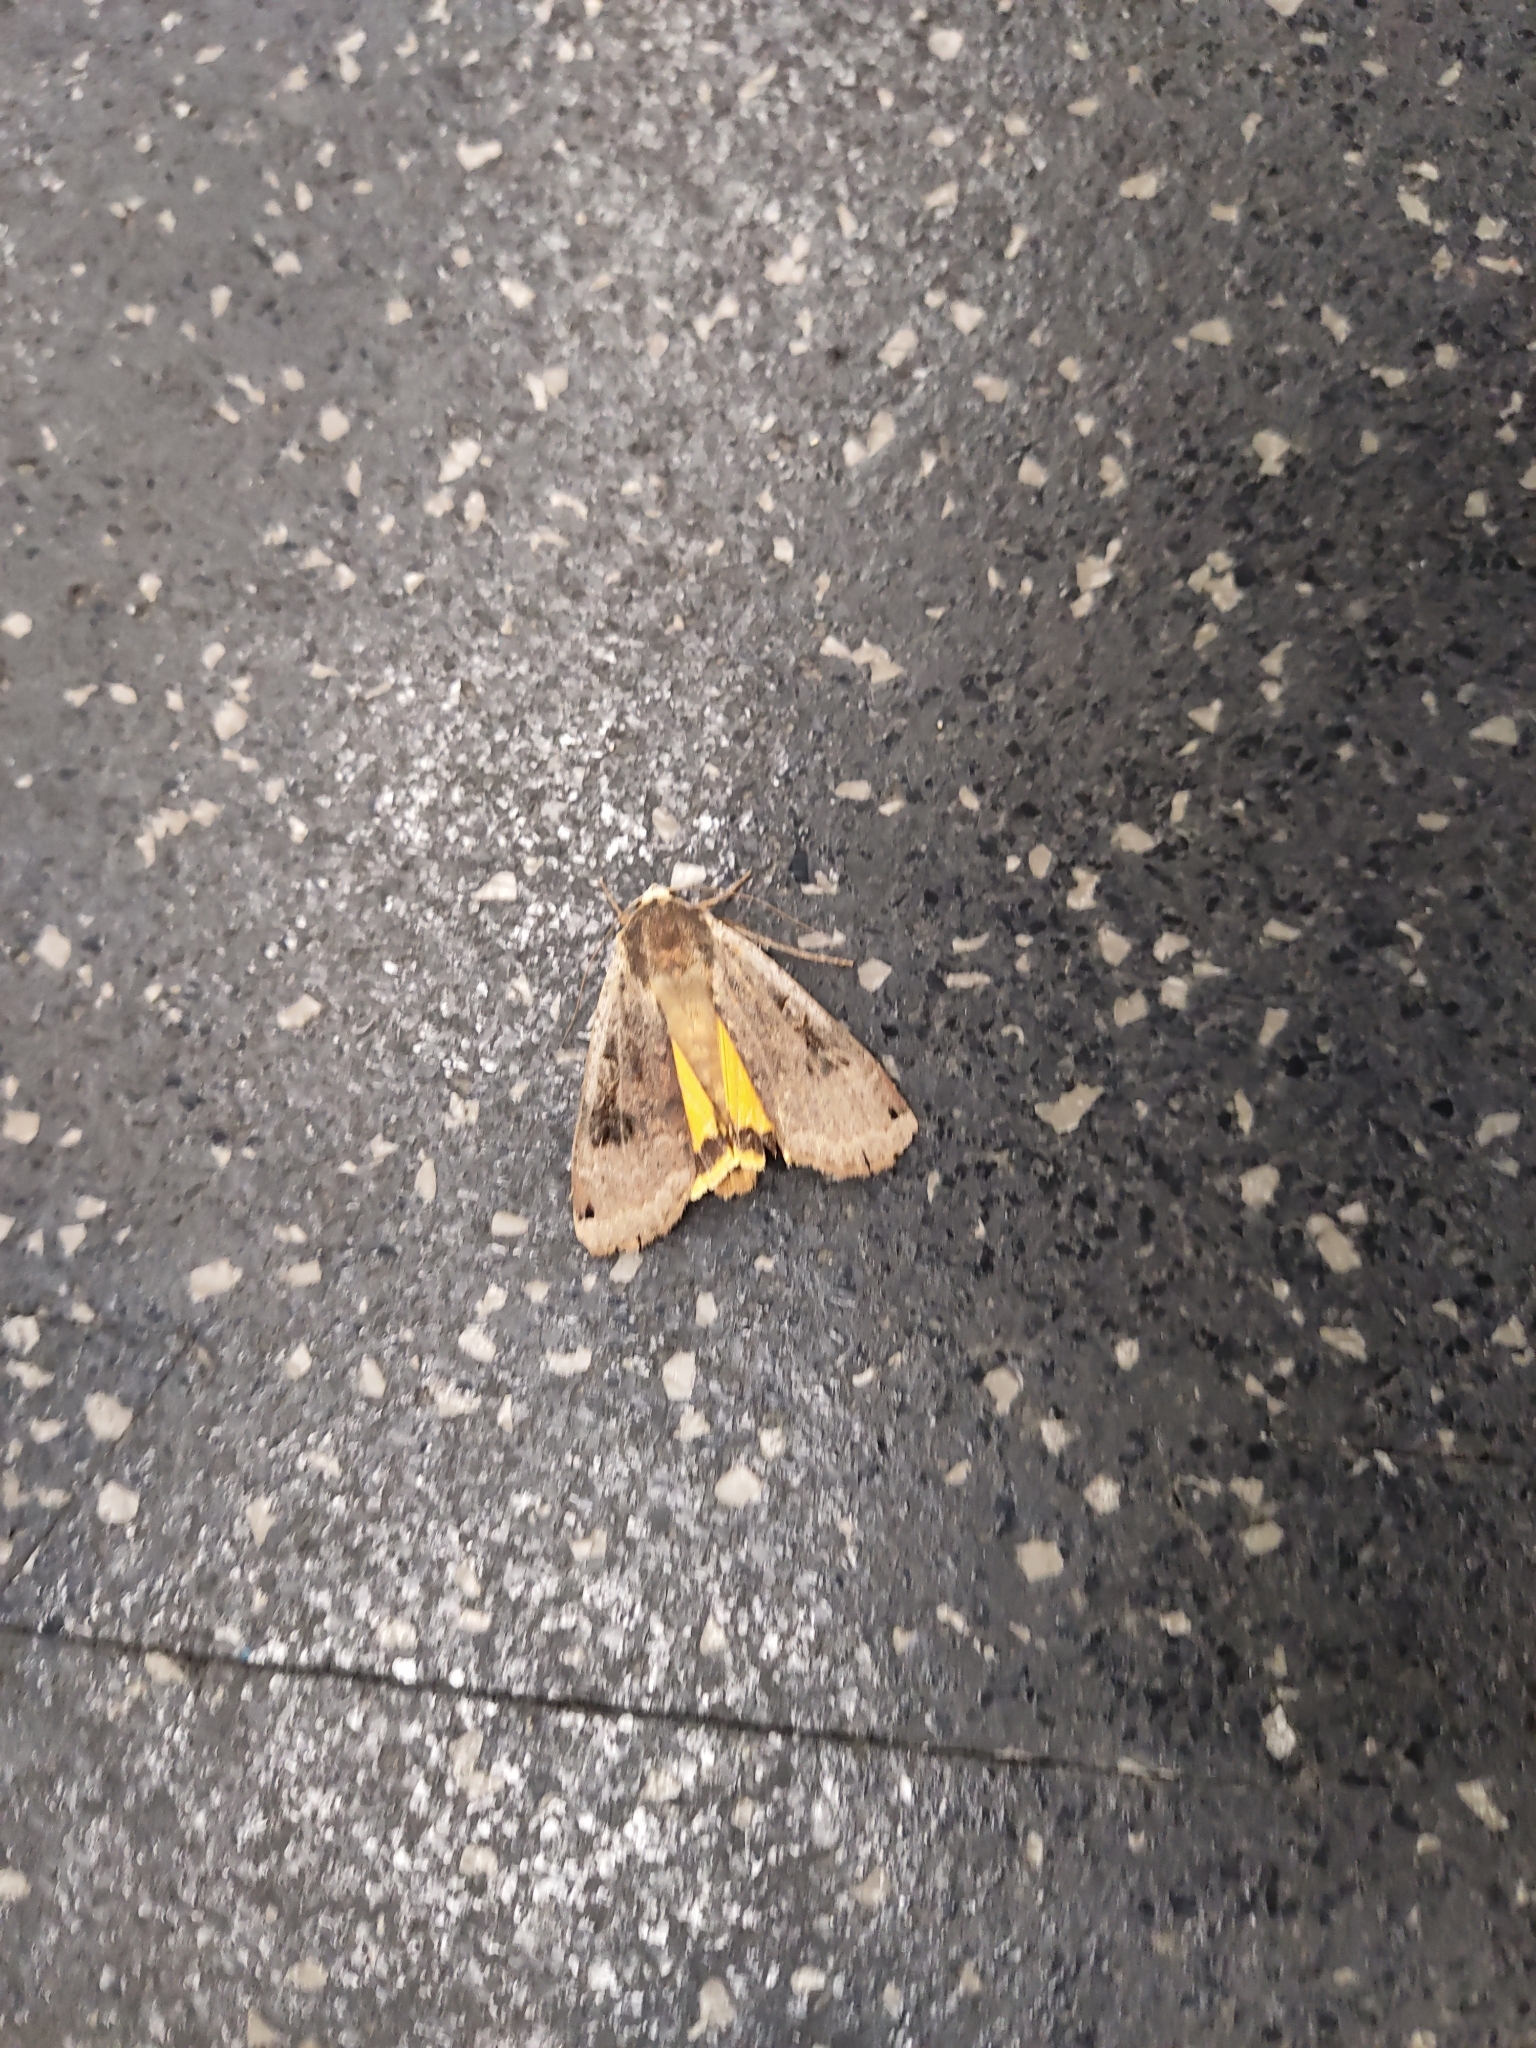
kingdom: Animalia
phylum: Arthropoda
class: Insecta
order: Lepidoptera
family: Noctuidae
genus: Noctua
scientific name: Noctua pronuba
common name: Large yellow underwing
